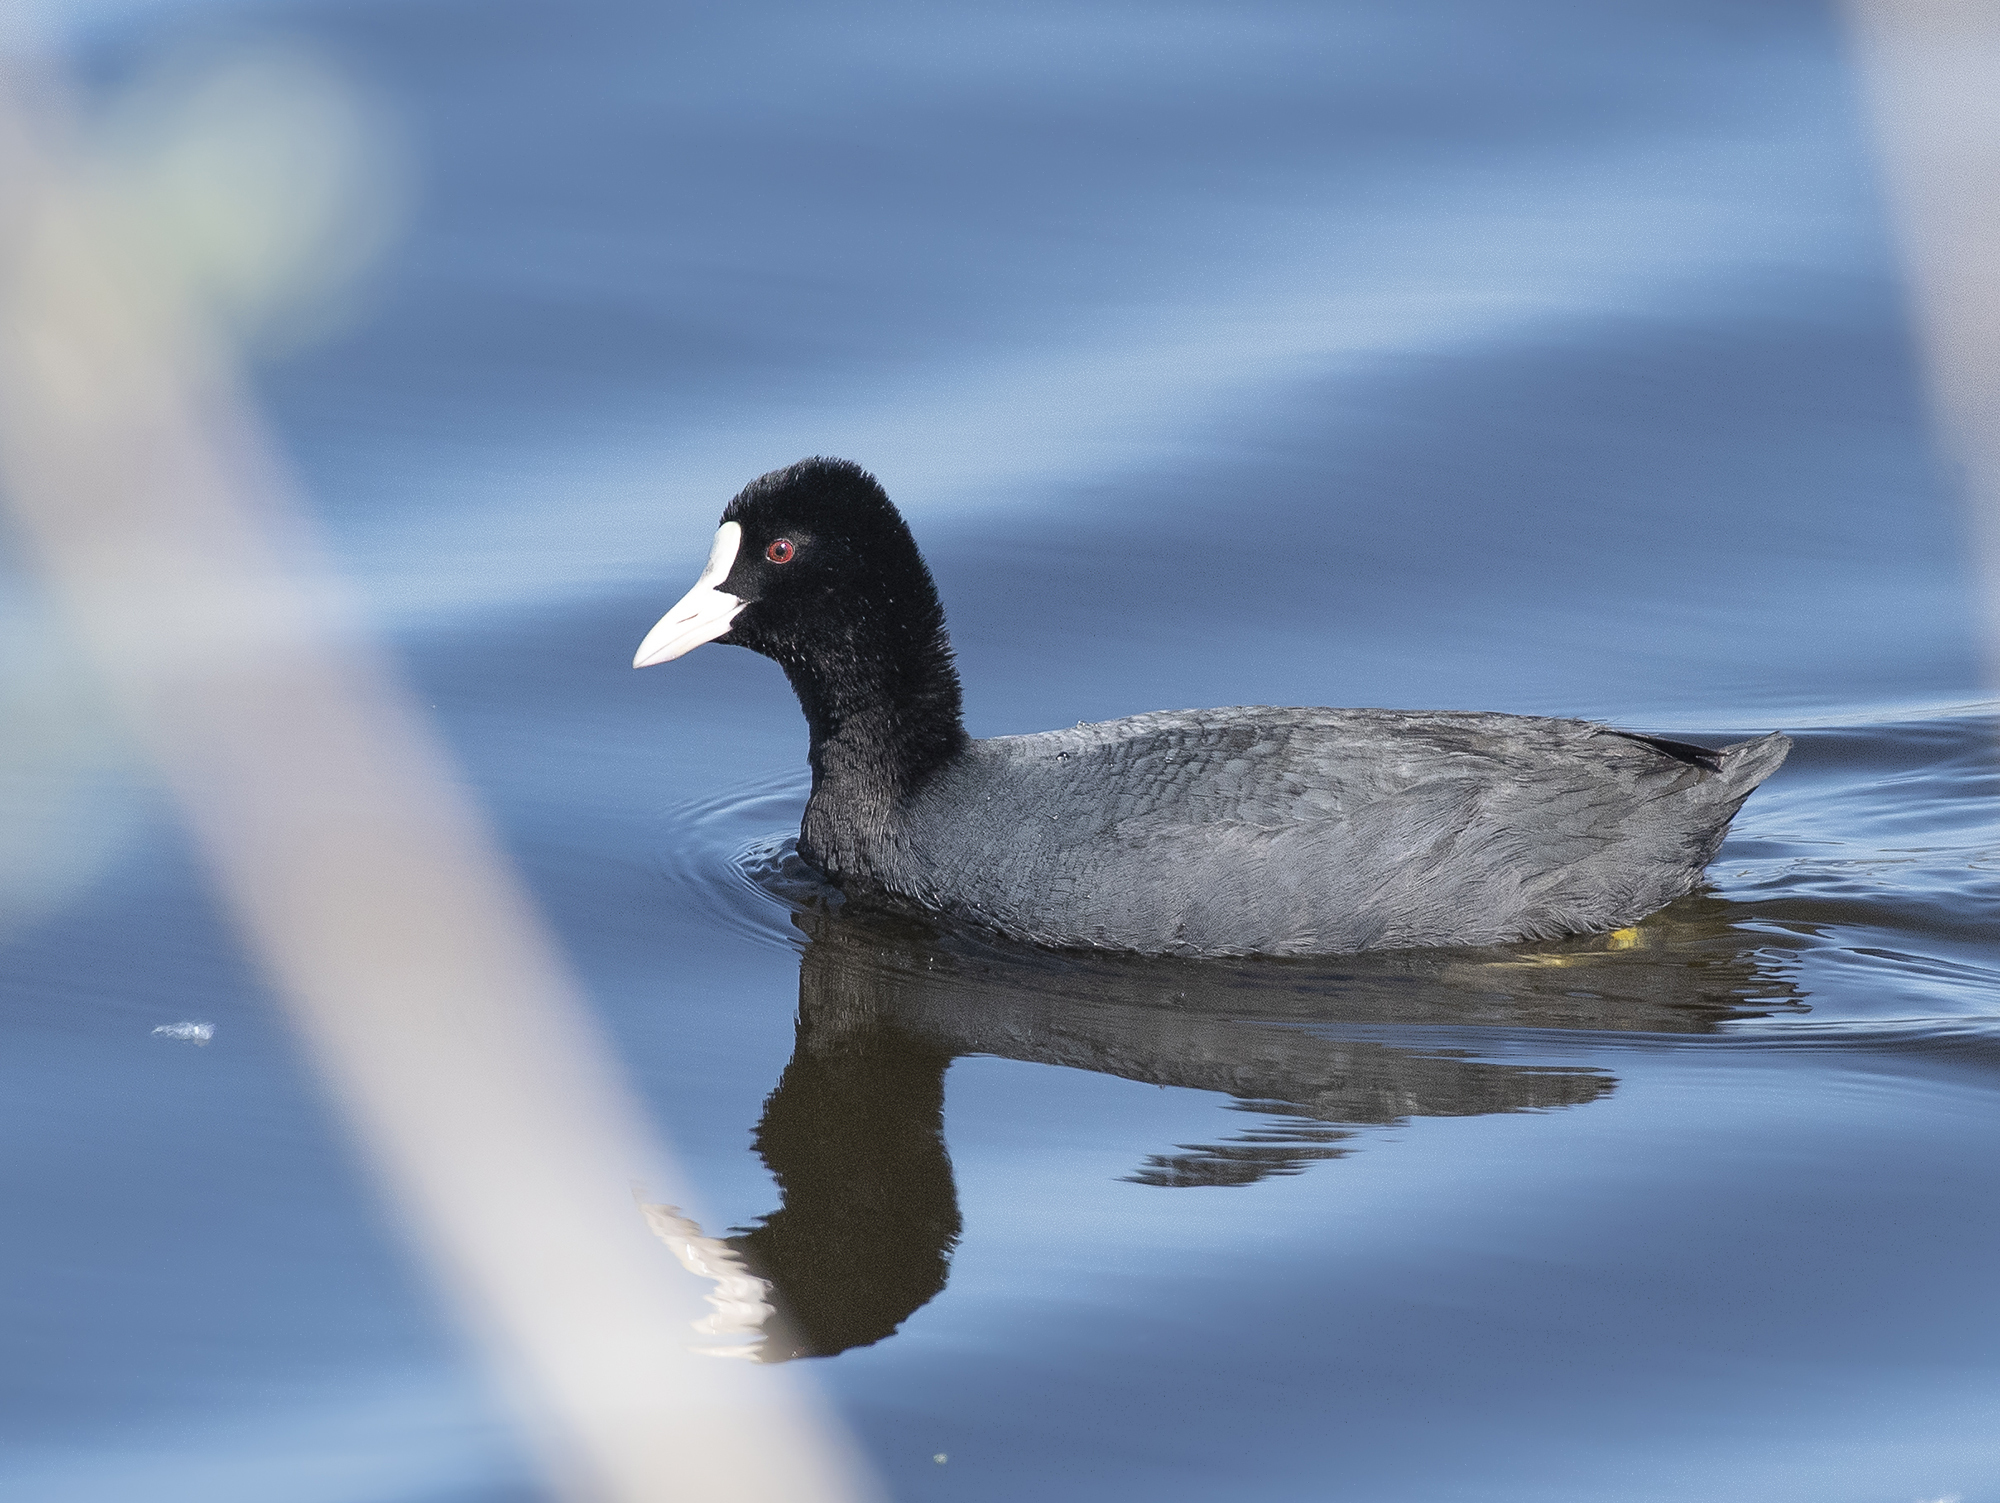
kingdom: Animalia
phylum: Chordata
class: Aves
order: Gruiformes
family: Rallidae
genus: Fulica
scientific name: Fulica atra
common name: Eurasian coot
